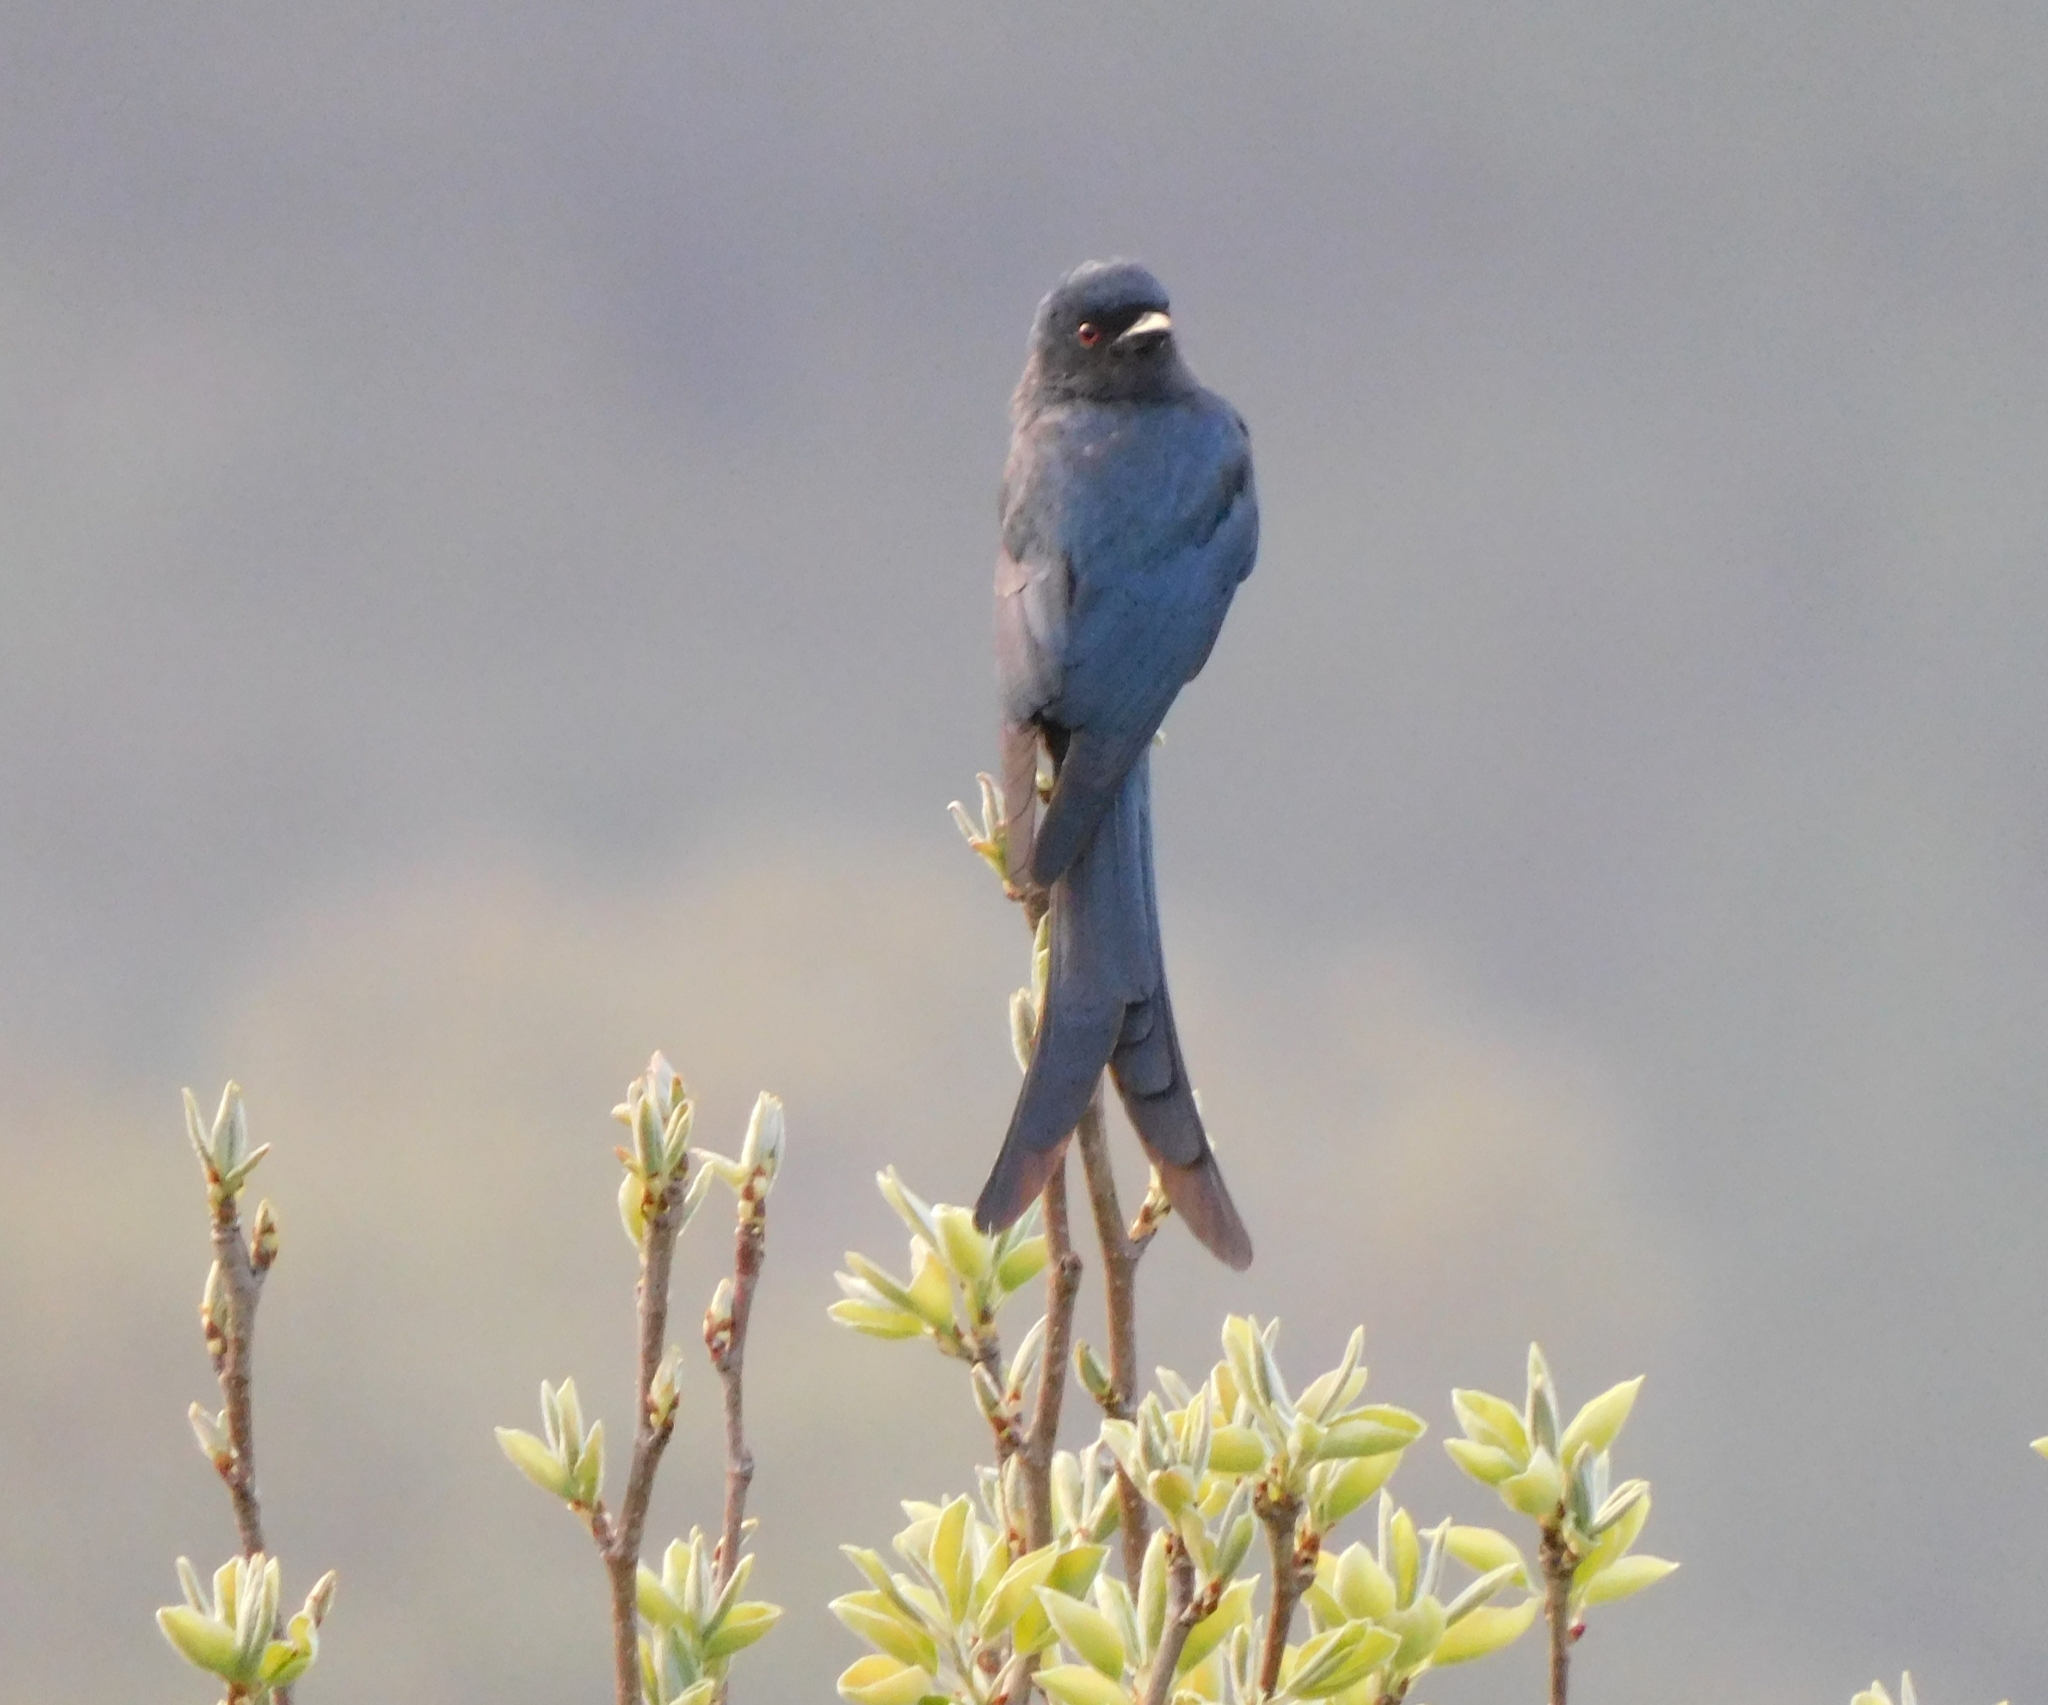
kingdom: Animalia
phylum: Chordata
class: Aves
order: Passeriformes
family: Dicruridae
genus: Dicrurus
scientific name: Dicrurus leucophaeus
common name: Ashy drongo
